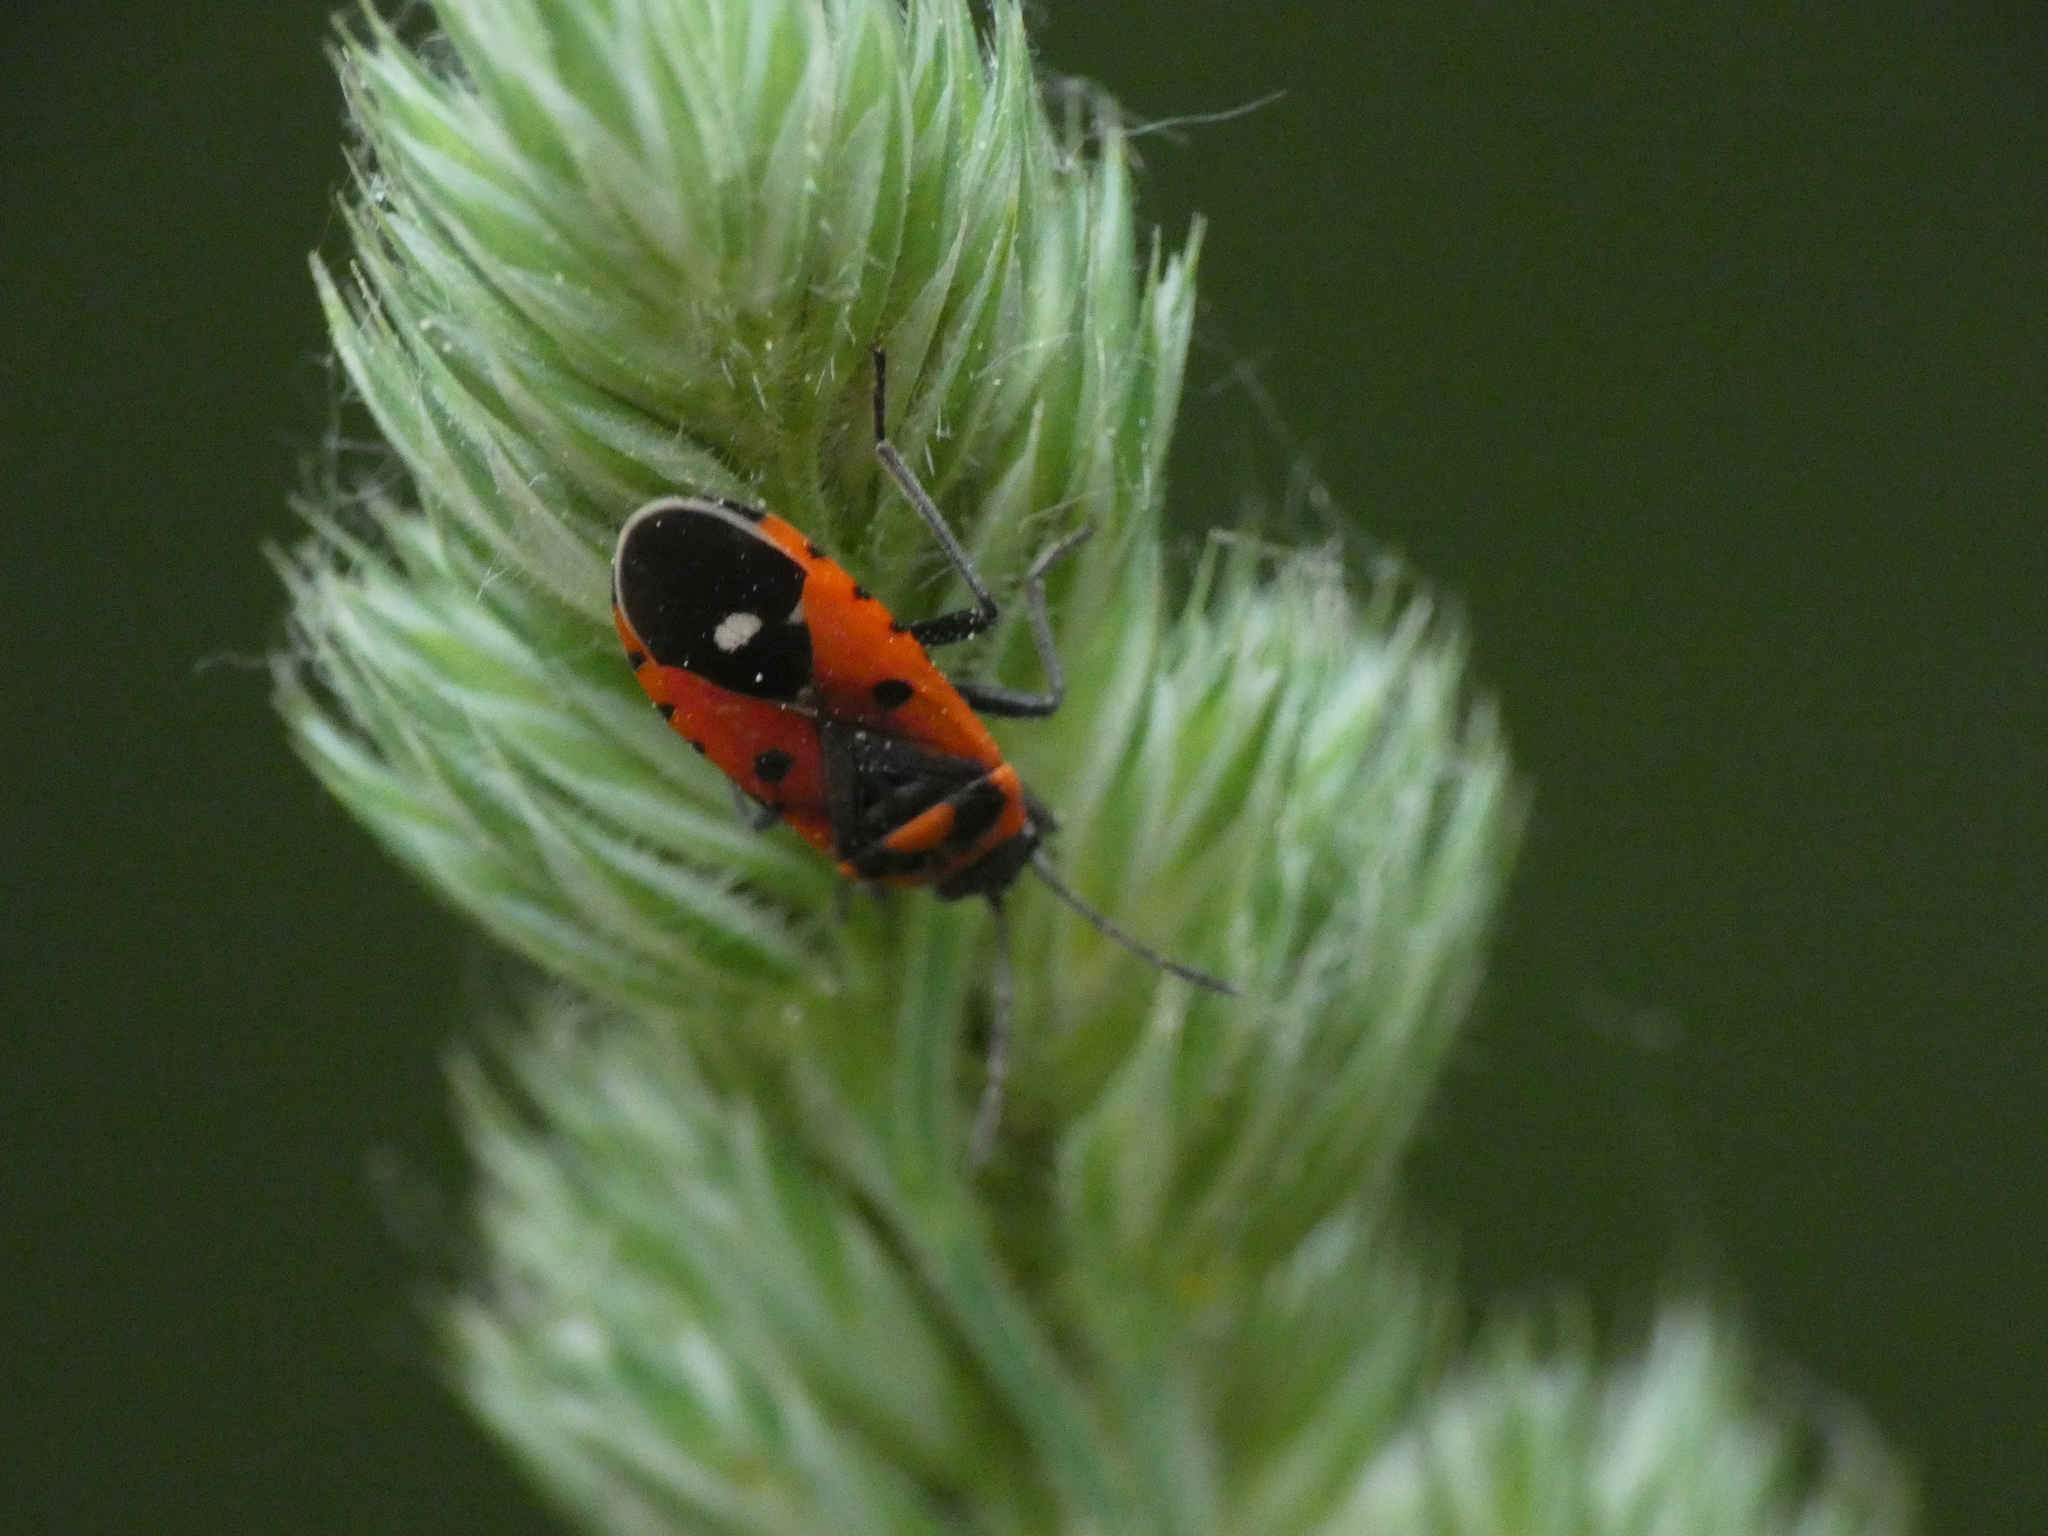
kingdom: Animalia
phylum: Arthropoda
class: Insecta
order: Hemiptera
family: Lygaeidae
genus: Melanocoryphus
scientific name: Melanocoryphus albomaculatus
